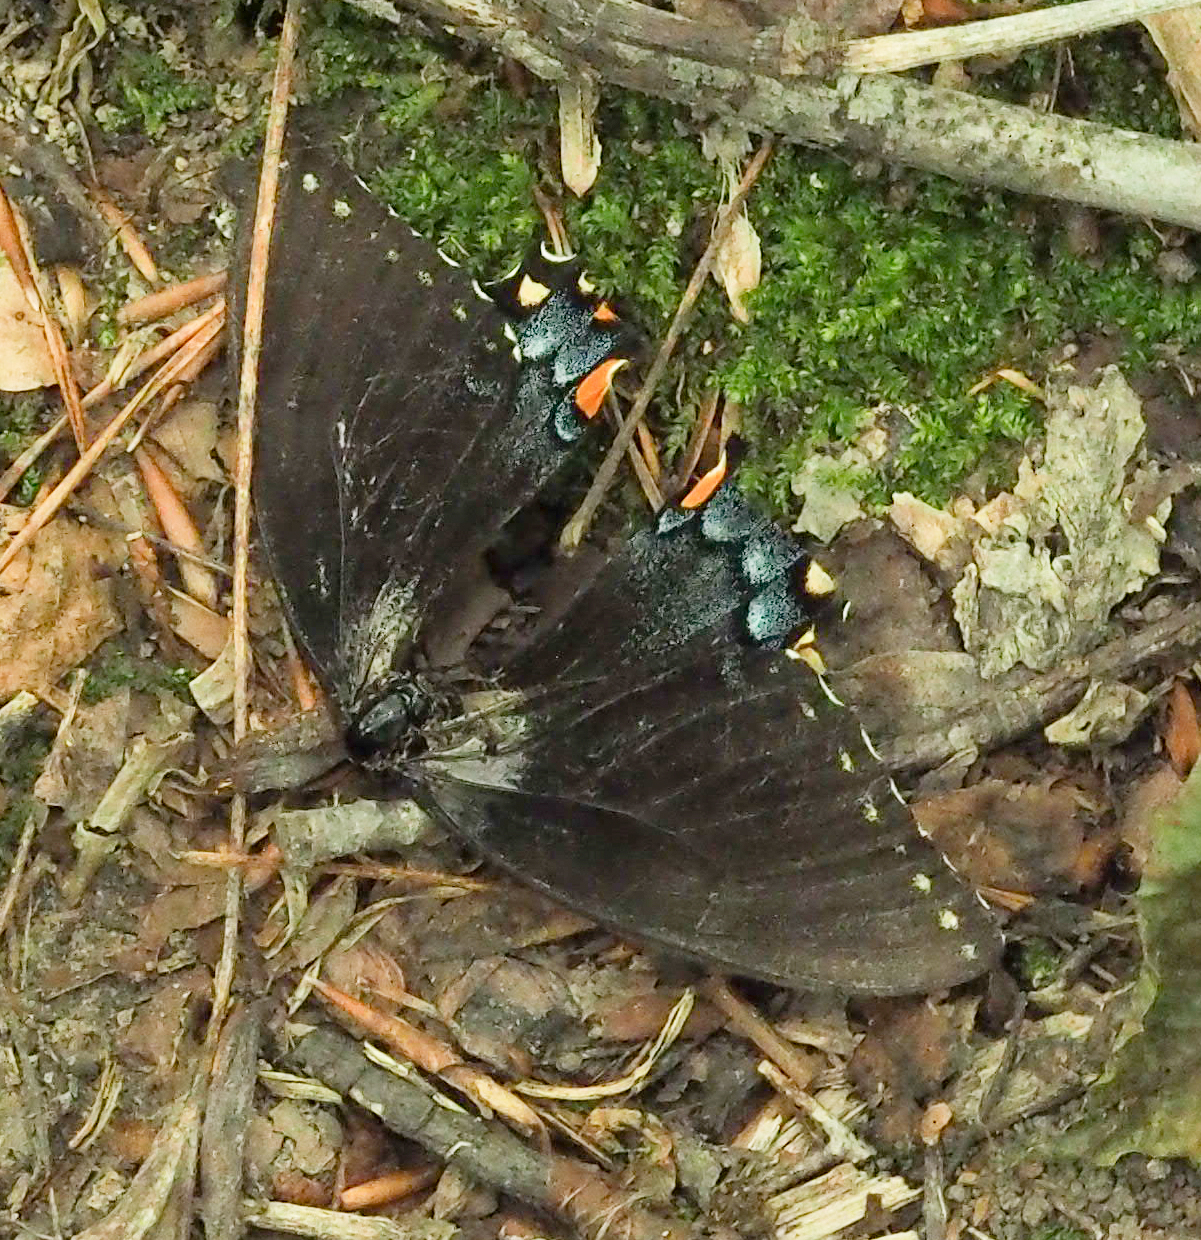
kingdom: Animalia
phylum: Arthropoda
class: Insecta
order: Lepidoptera
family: Papilionidae
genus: Papilio
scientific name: Papilio glaucus
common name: Tiger swallowtail
